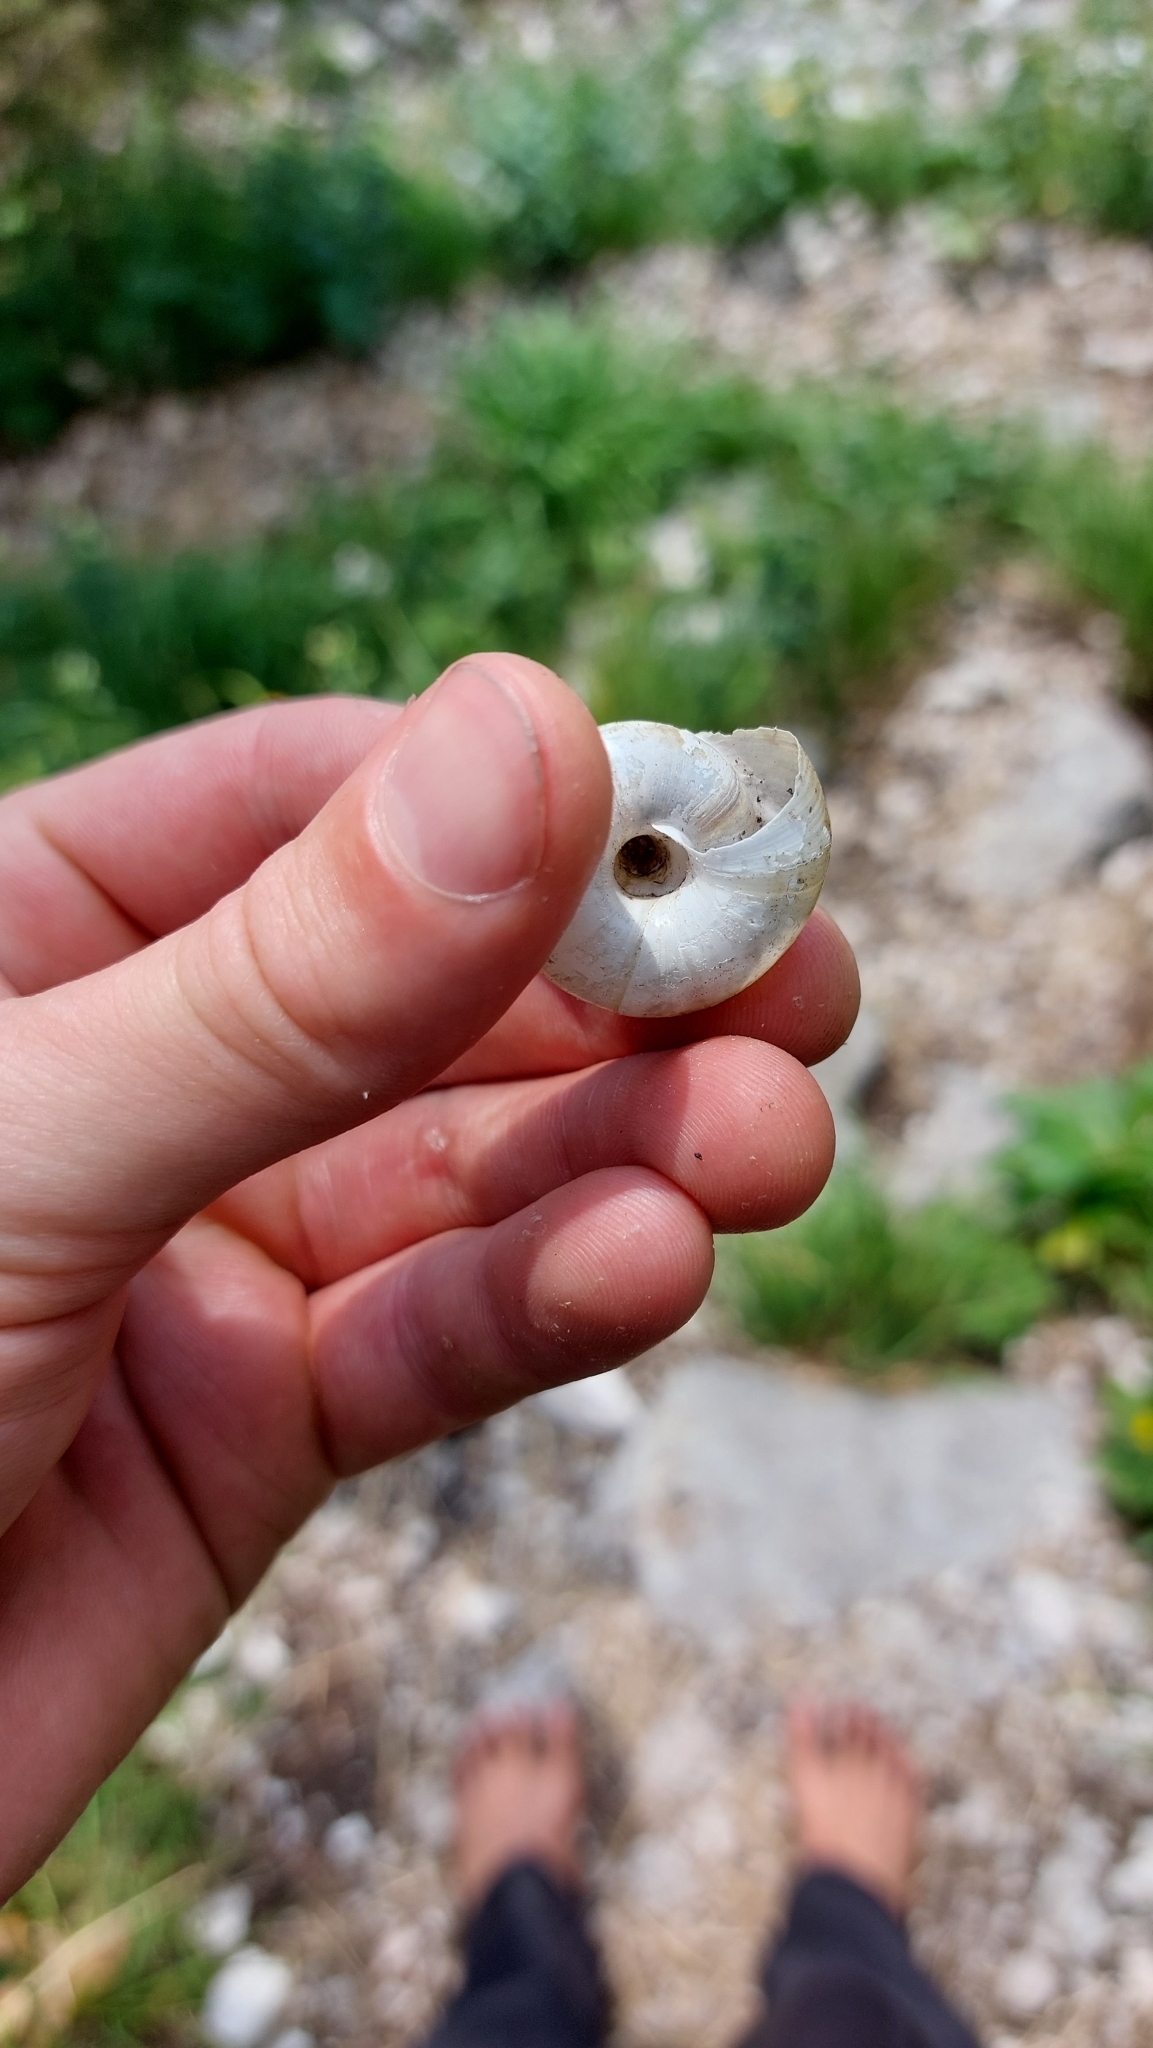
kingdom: Animalia
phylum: Mollusca
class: Gastropoda
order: Stylommatophora
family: Zonitidae
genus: Aegopis
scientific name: Aegopis verticillus
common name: Giant glass snail
